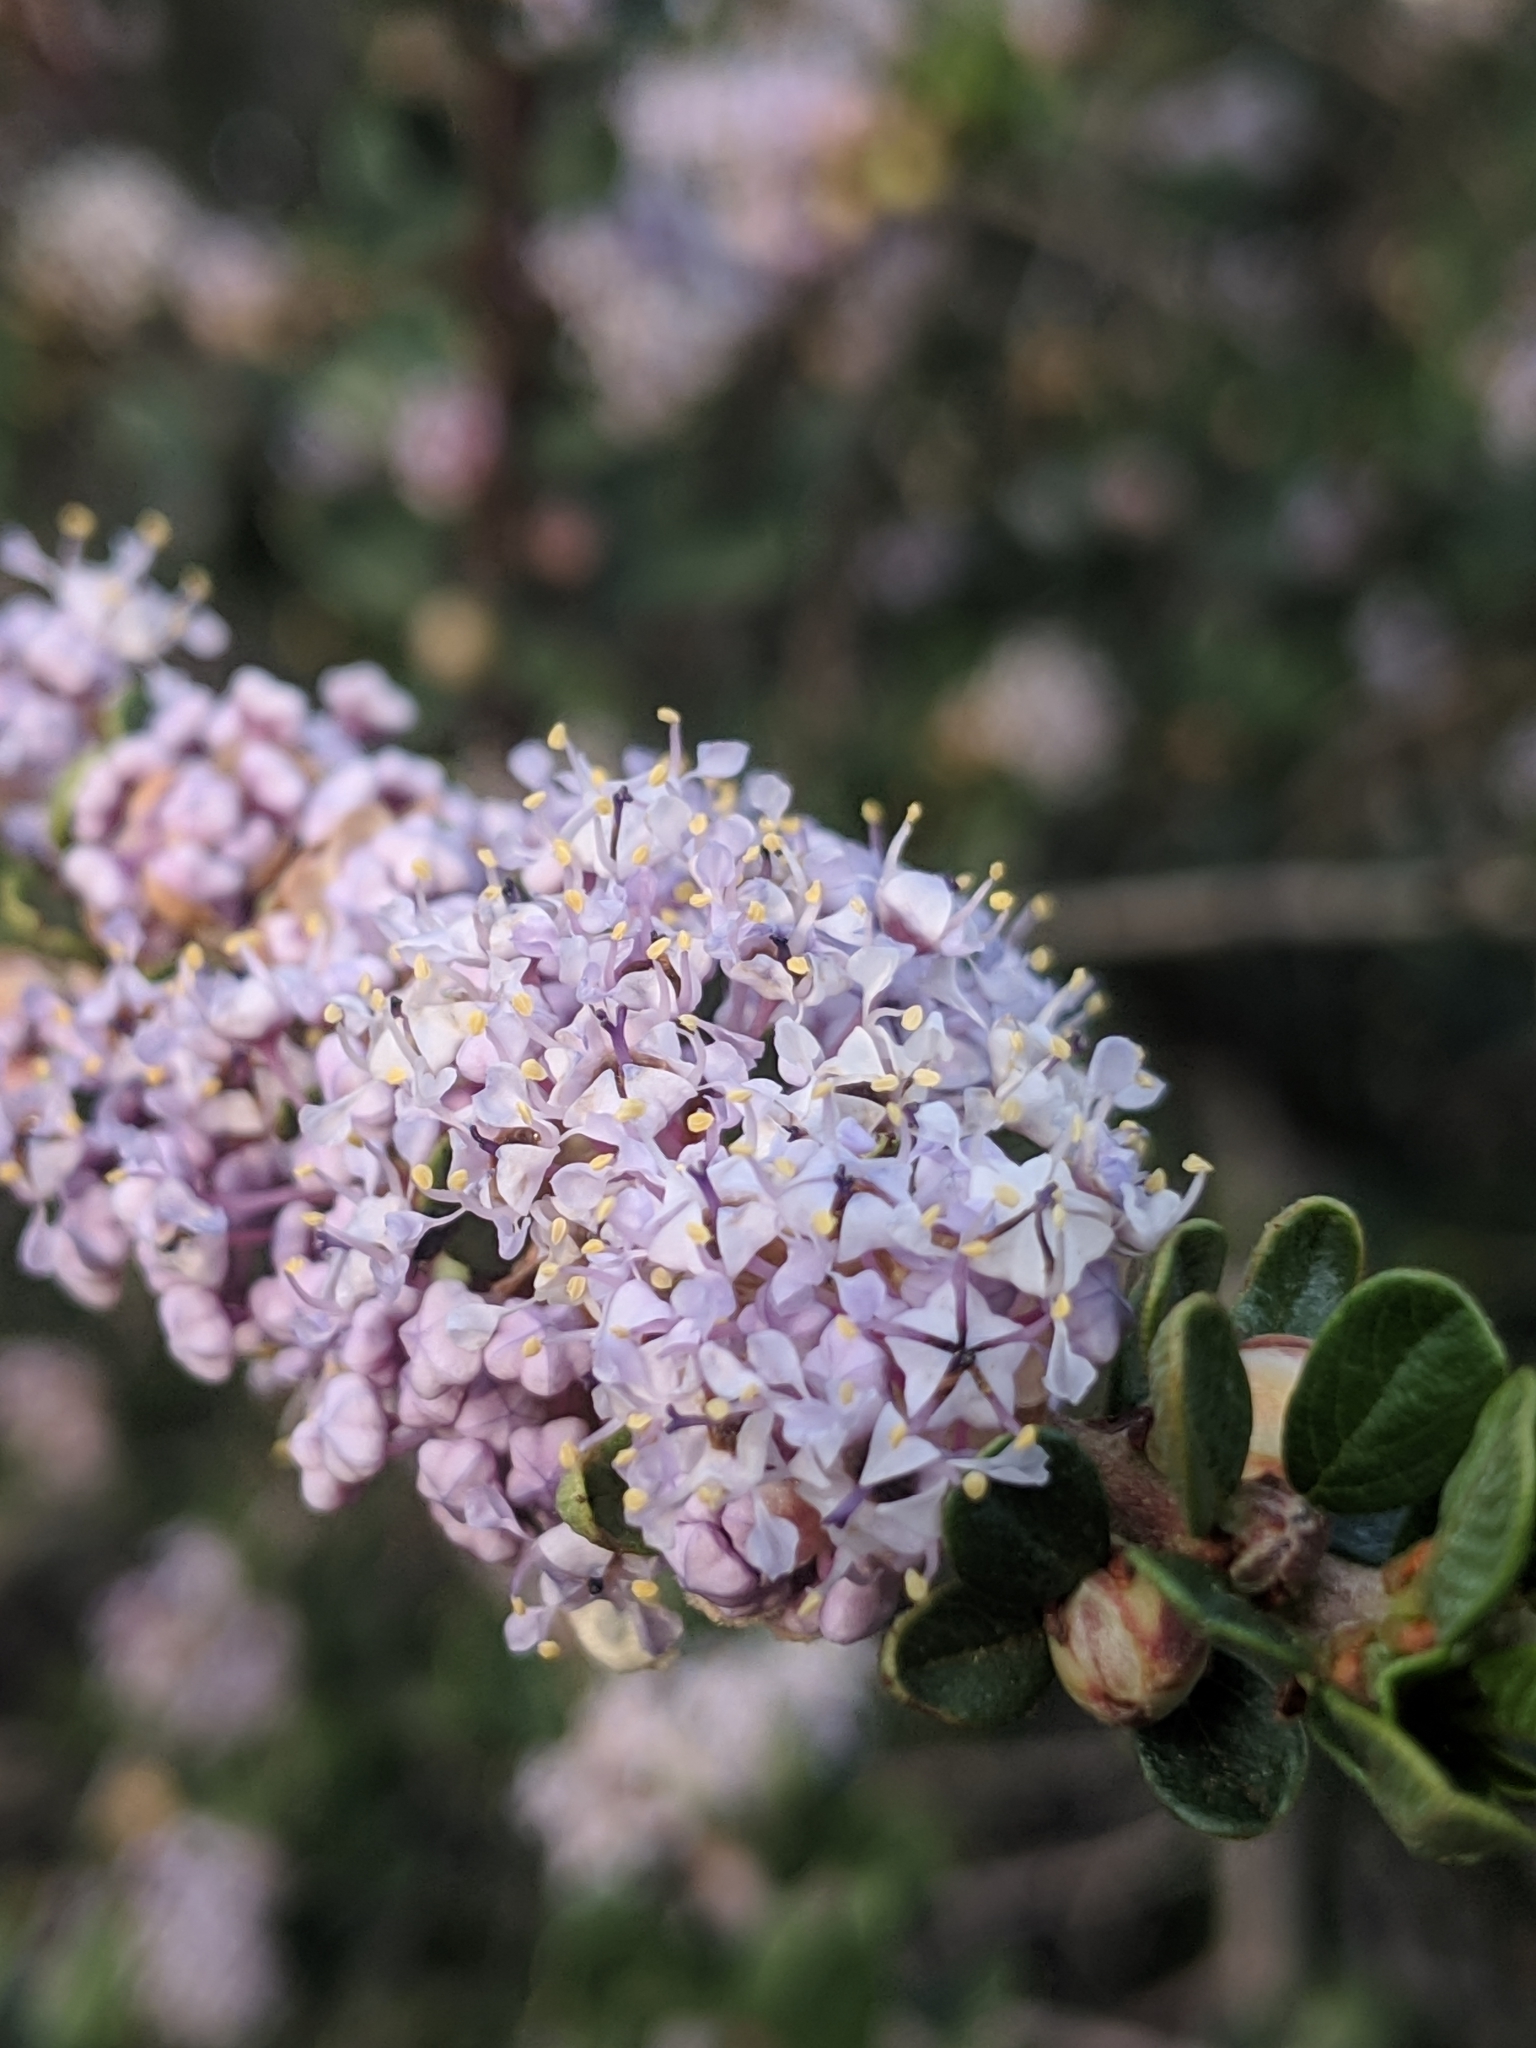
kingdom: Plantae
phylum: Tracheophyta
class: Magnoliopsida
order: Rosales
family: Rhamnaceae
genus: Ceanothus
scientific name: Ceanothus cuneatus
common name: Cuneate ceanothus
